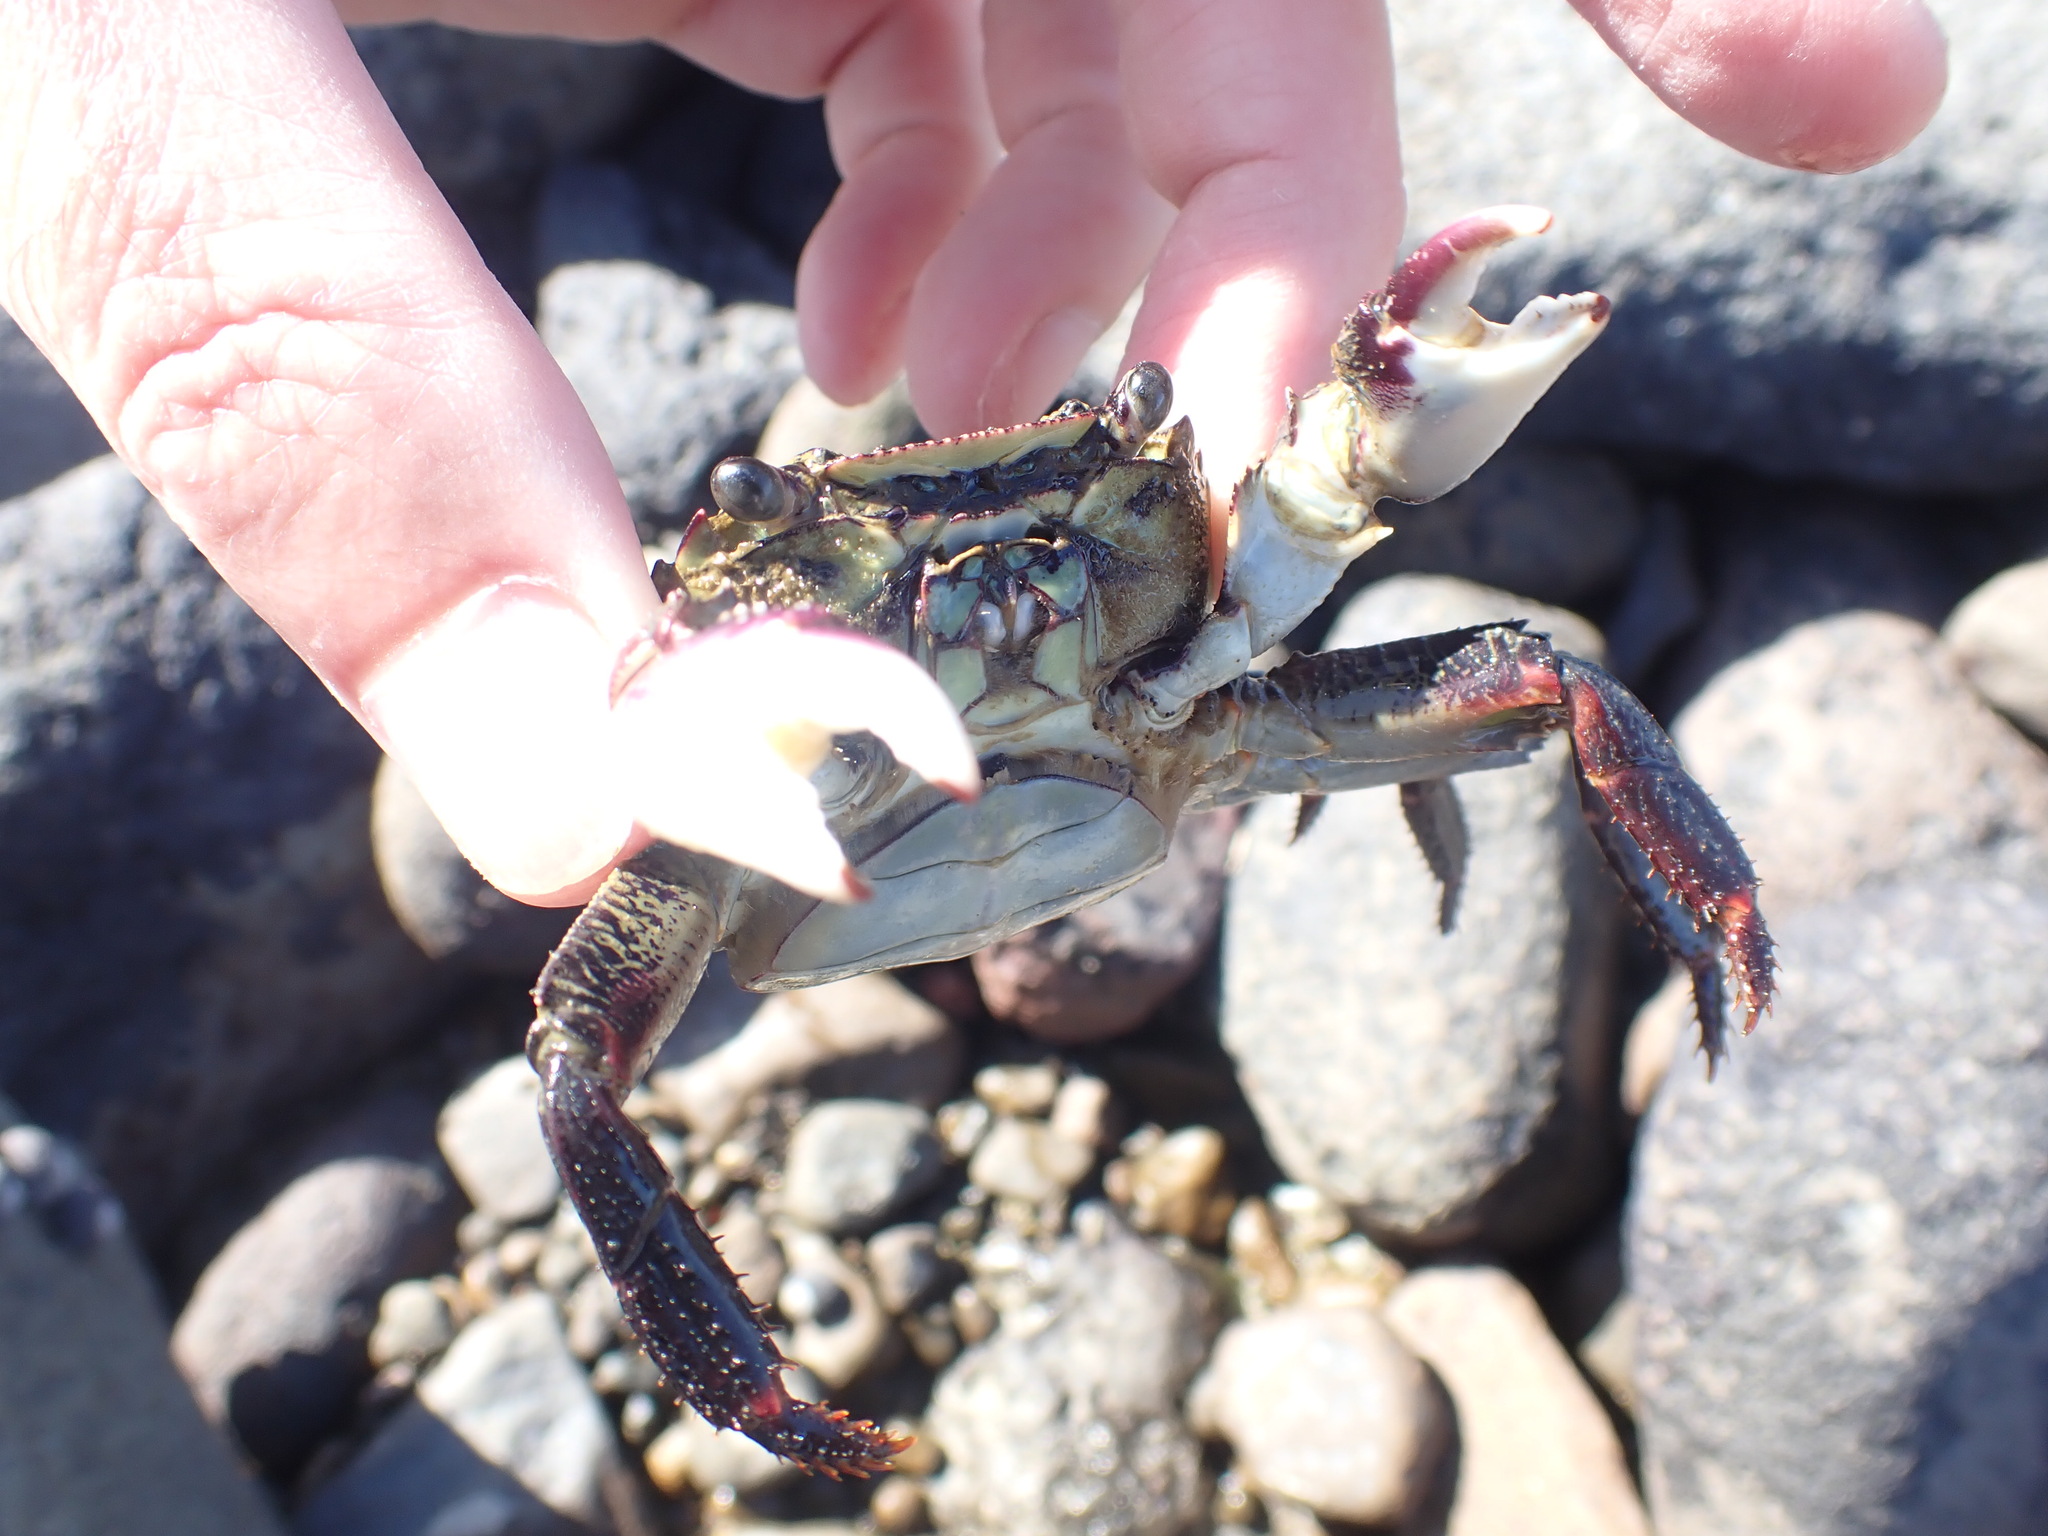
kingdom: Animalia
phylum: Arthropoda
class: Malacostraca
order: Decapoda
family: Grapsidae
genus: Leptograpsus
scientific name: Leptograpsus variegatus
